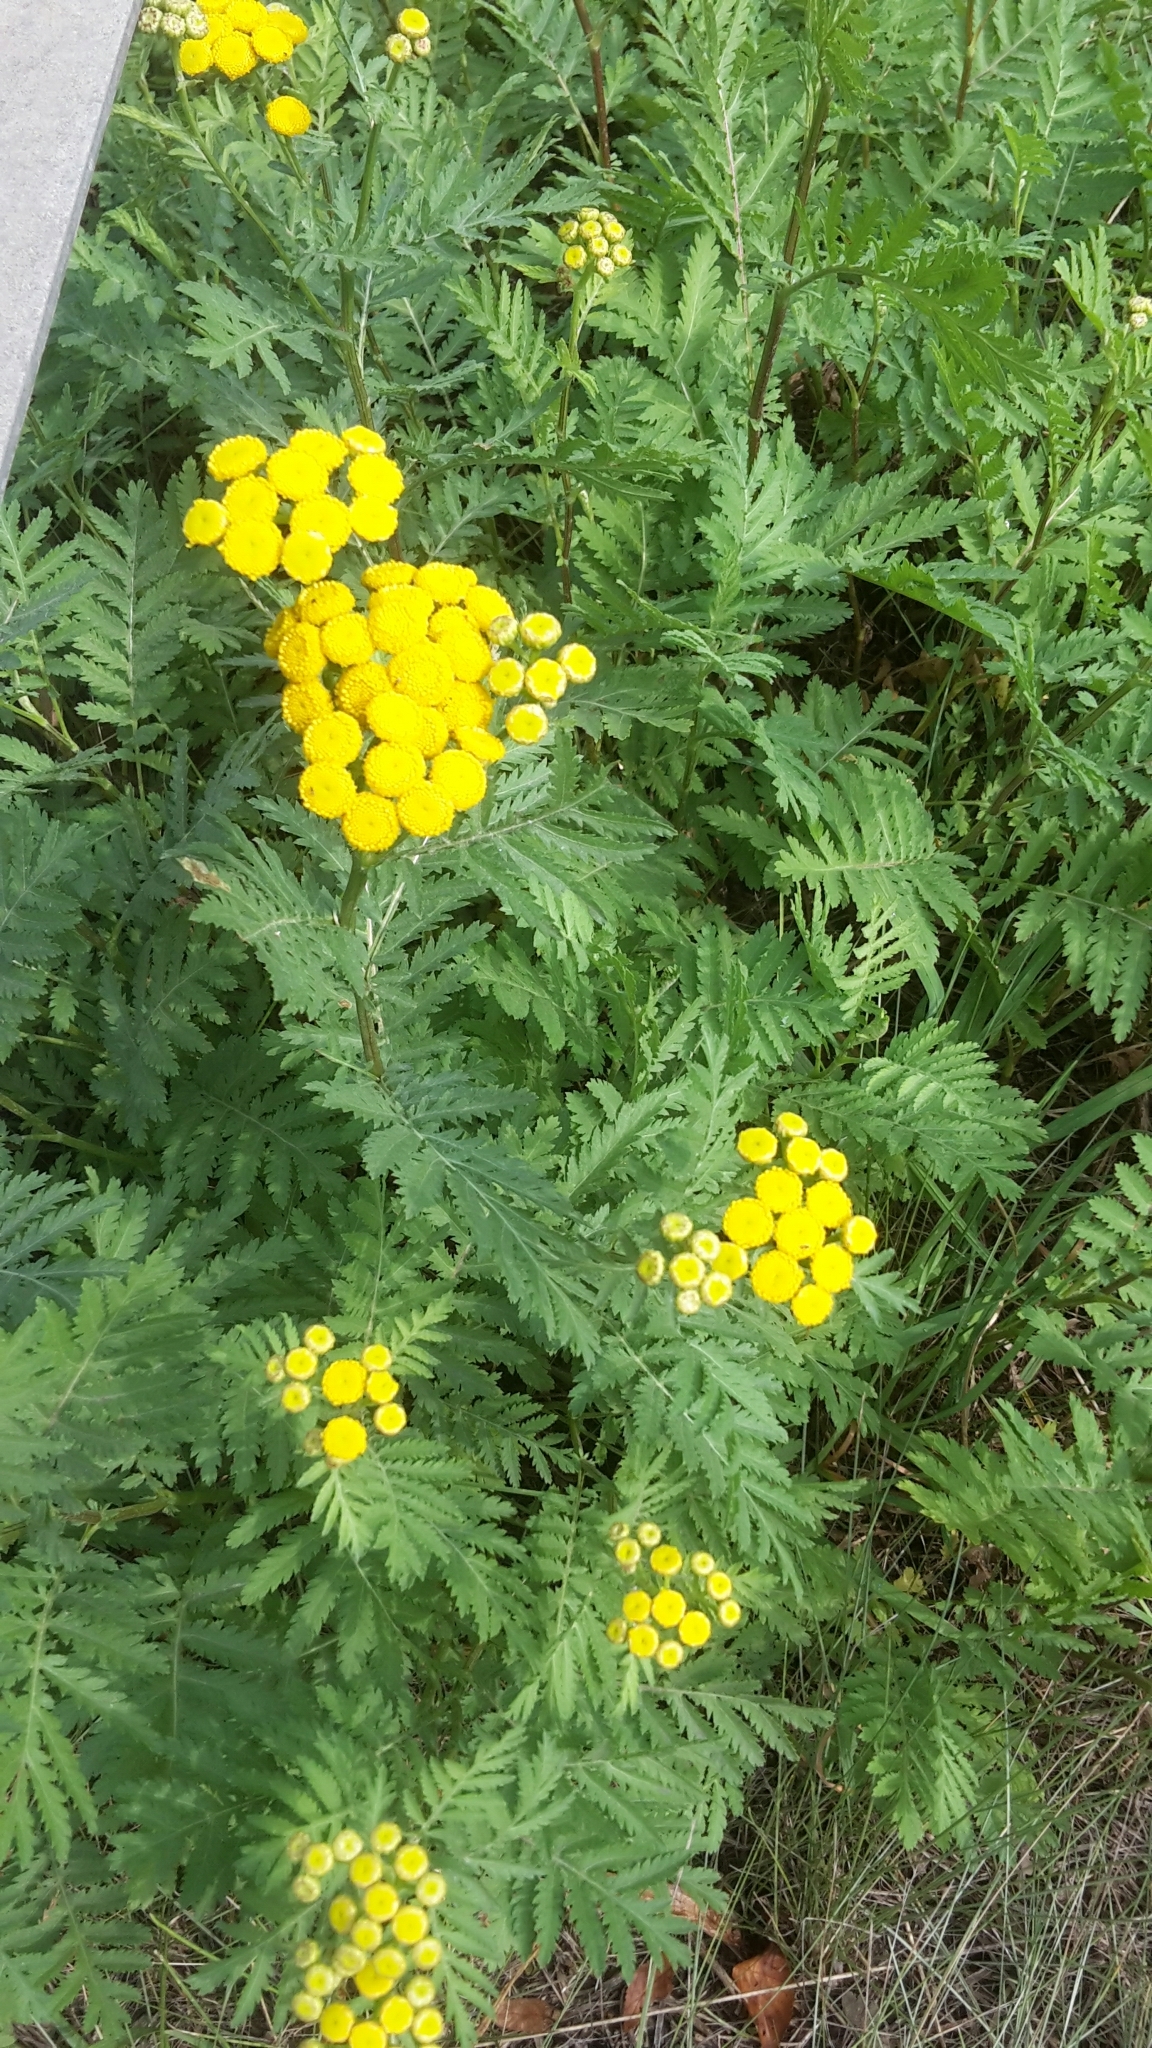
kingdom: Plantae
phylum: Tracheophyta
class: Magnoliopsida
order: Asterales
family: Asteraceae
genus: Tanacetum
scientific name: Tanacetum vulgare
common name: Common tansy
